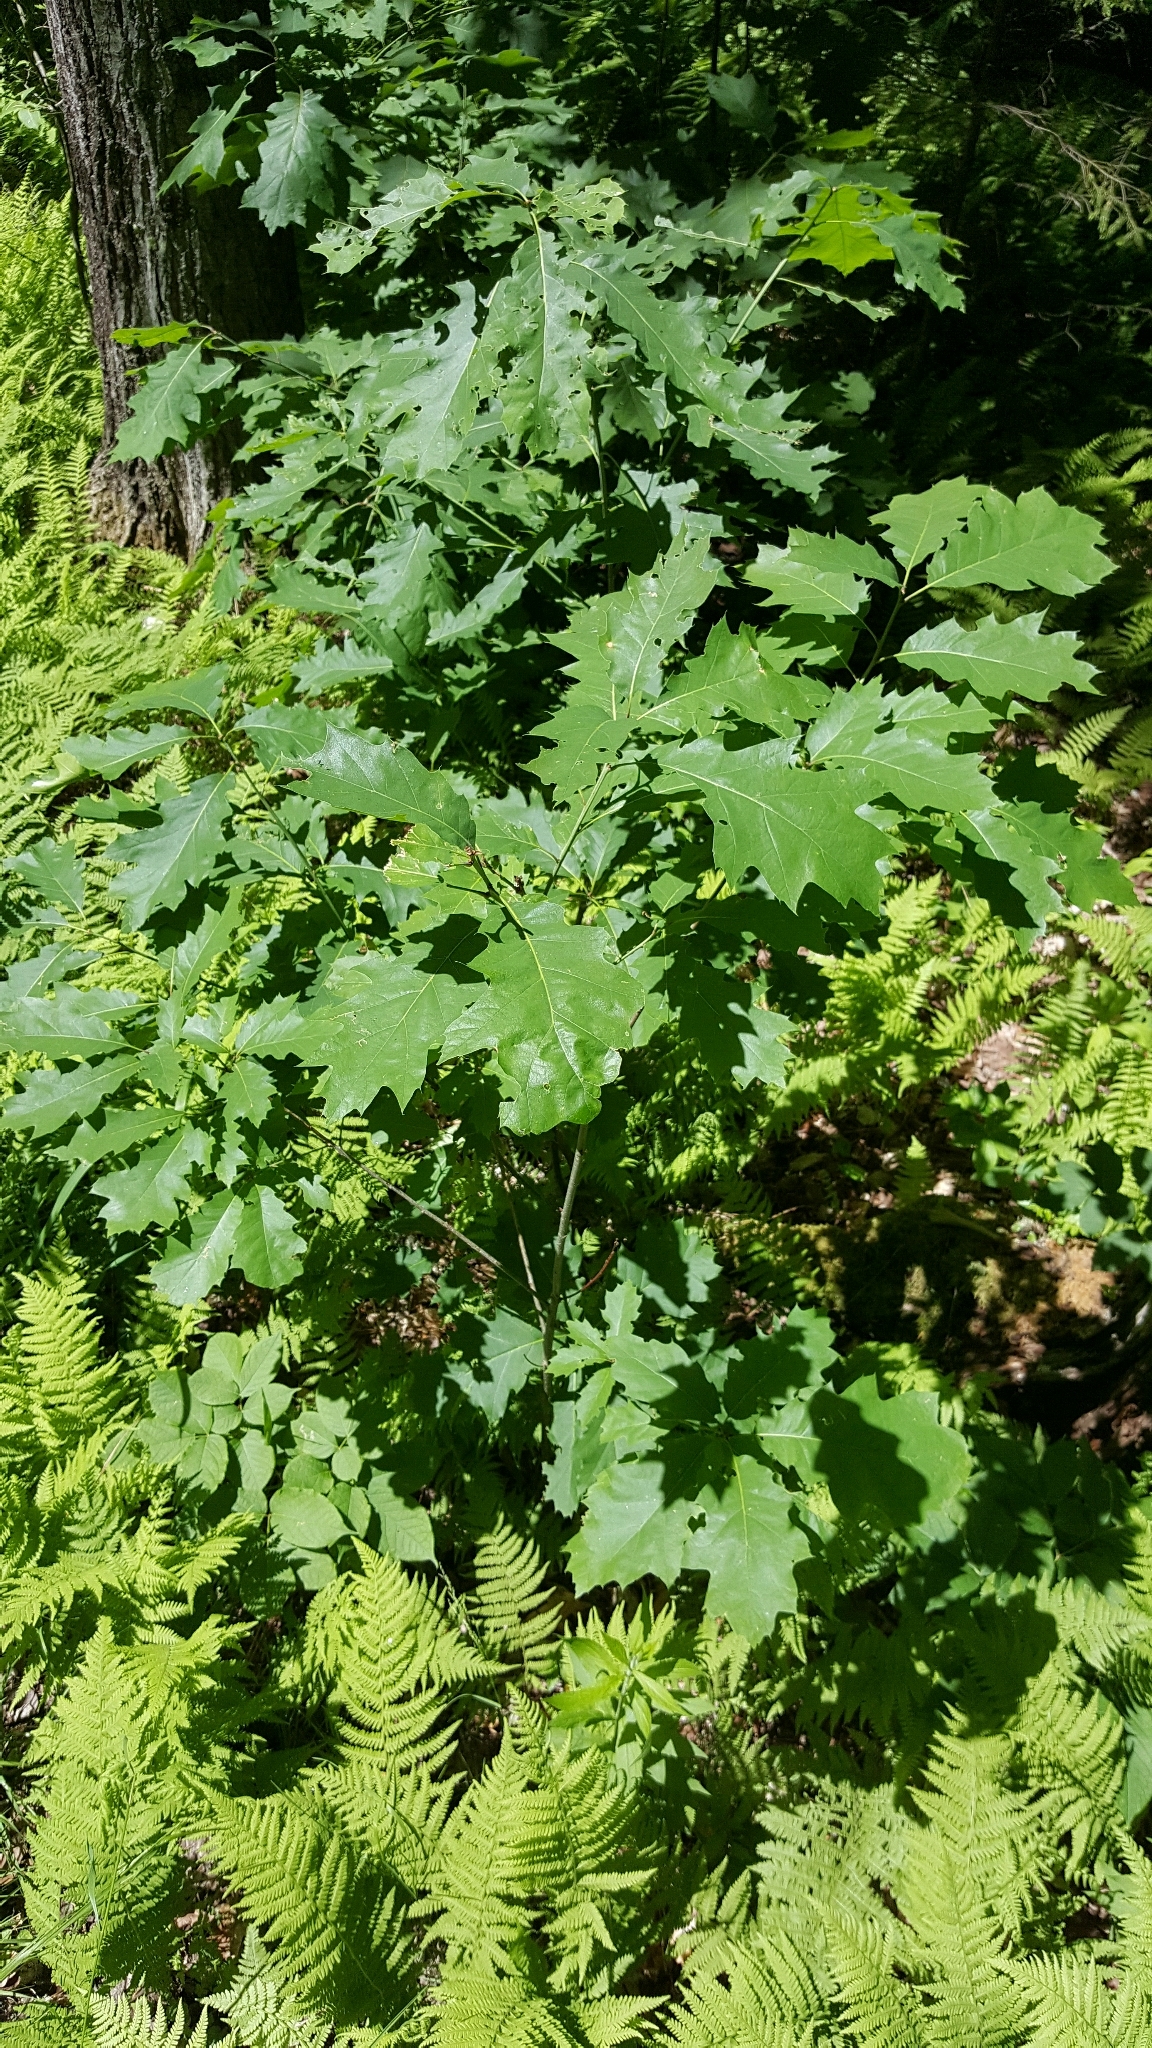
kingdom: Plantae
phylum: Tracheophyta
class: Magnoliopsida
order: Fagales
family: Fagaceae
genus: Quercus
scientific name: Quercus rubra
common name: Red oak
